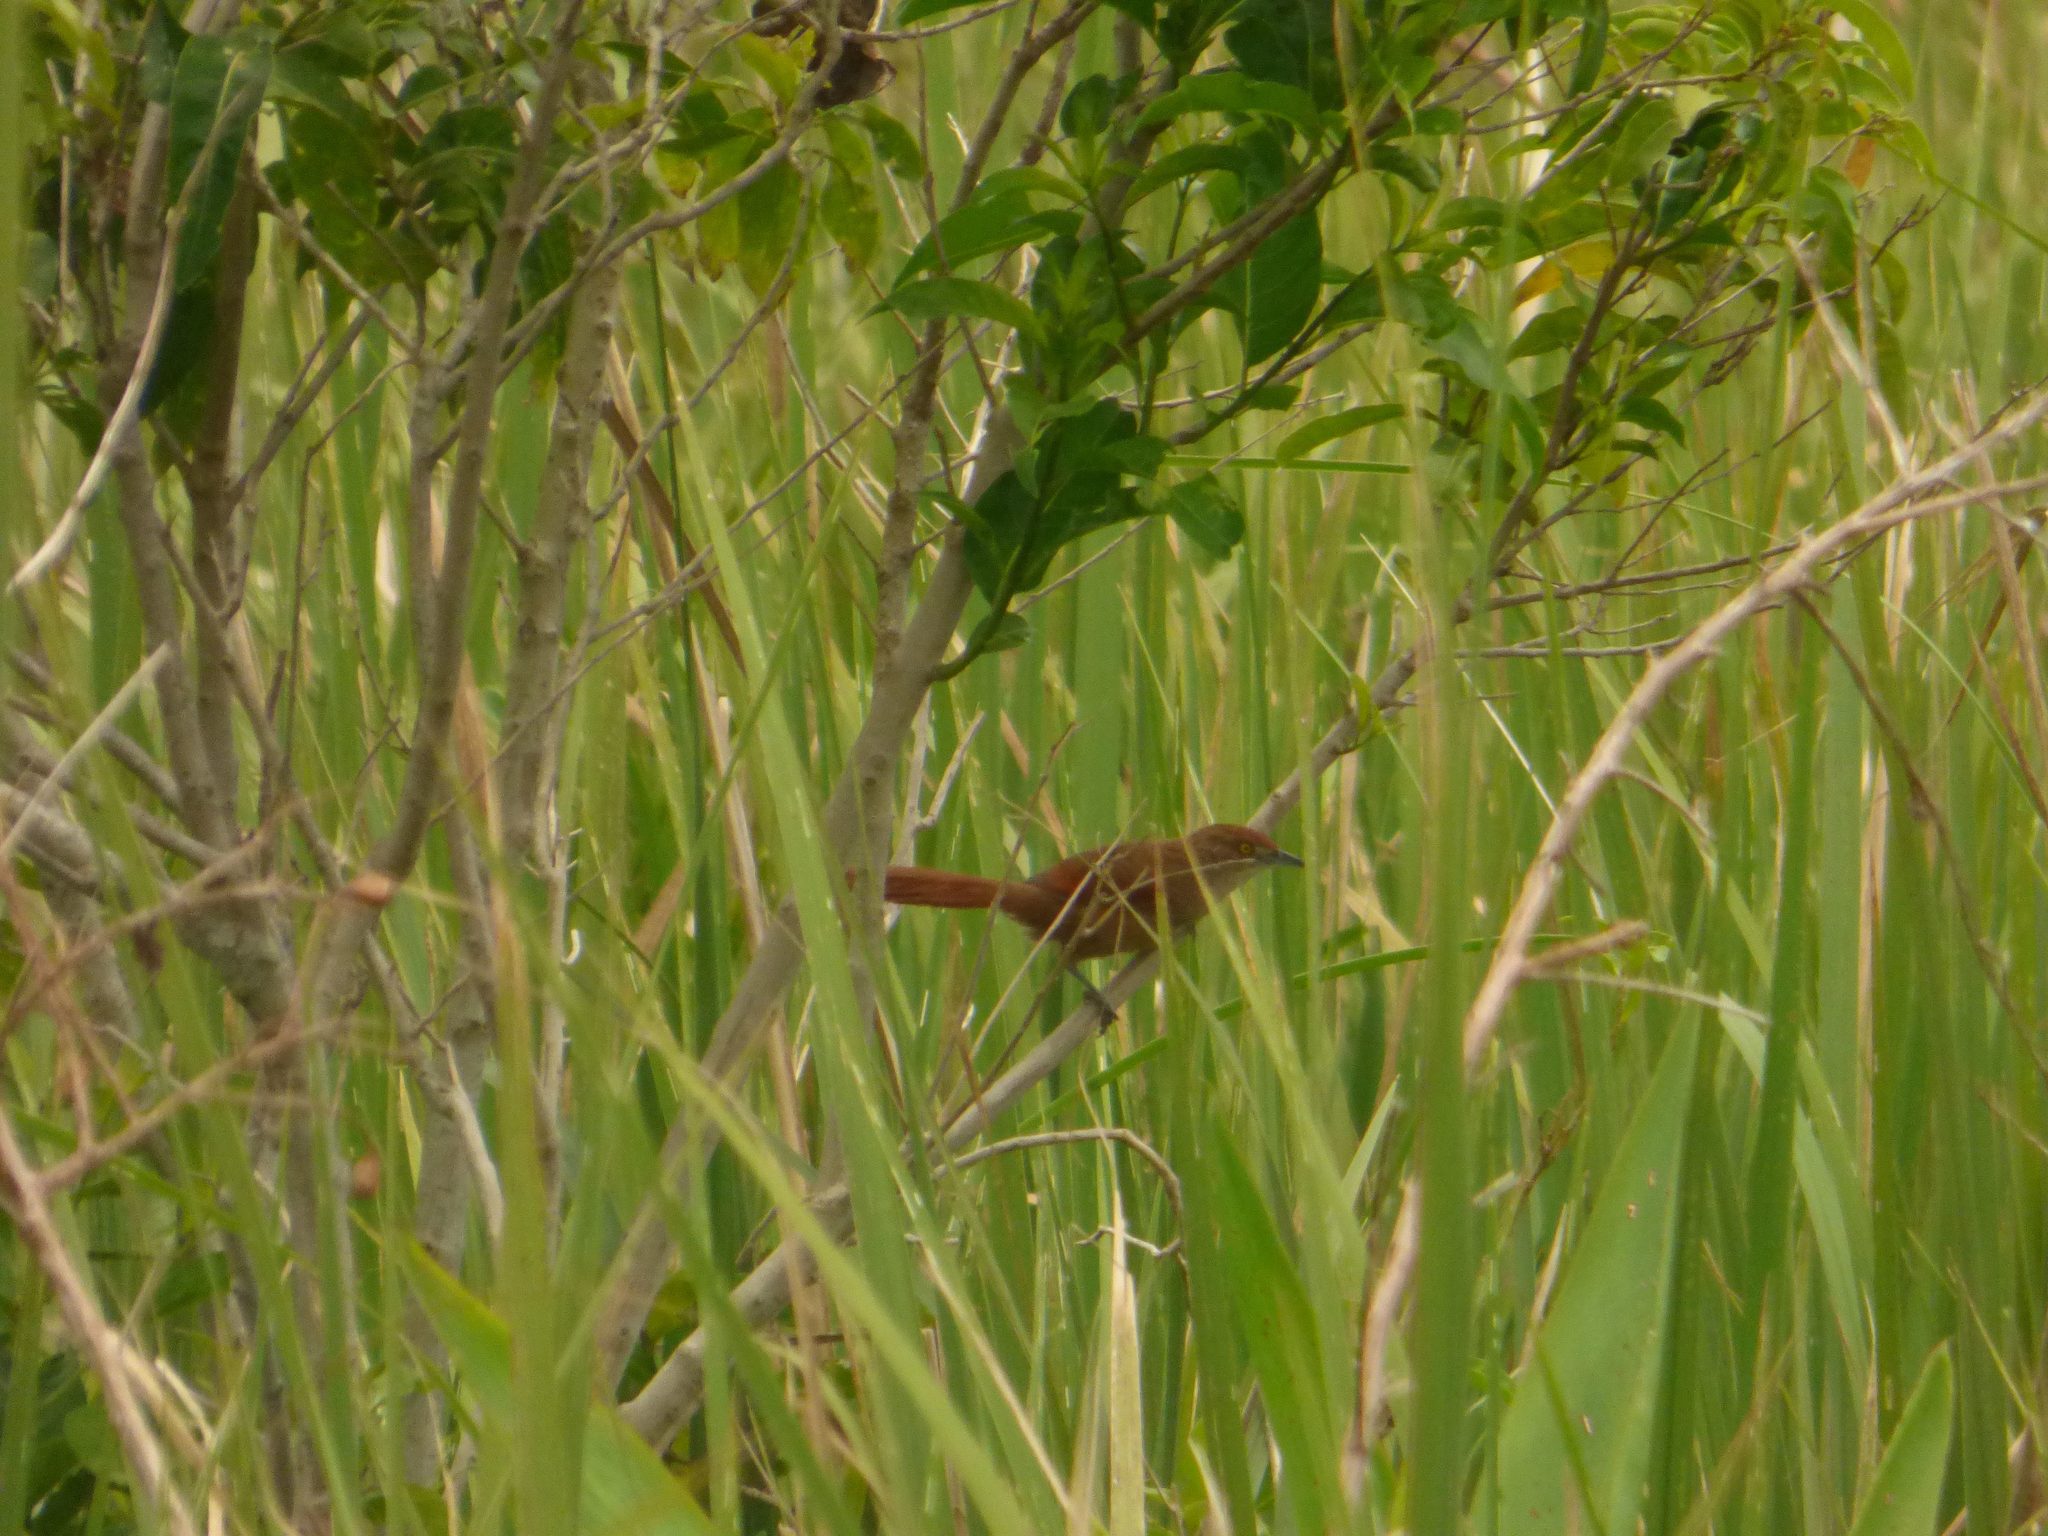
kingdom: Animalia
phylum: Chordata
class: Aves
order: Passeriformes
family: Furnariidae
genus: Phacellodomus
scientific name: Phacellodomus ruber
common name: Greater thornbird
